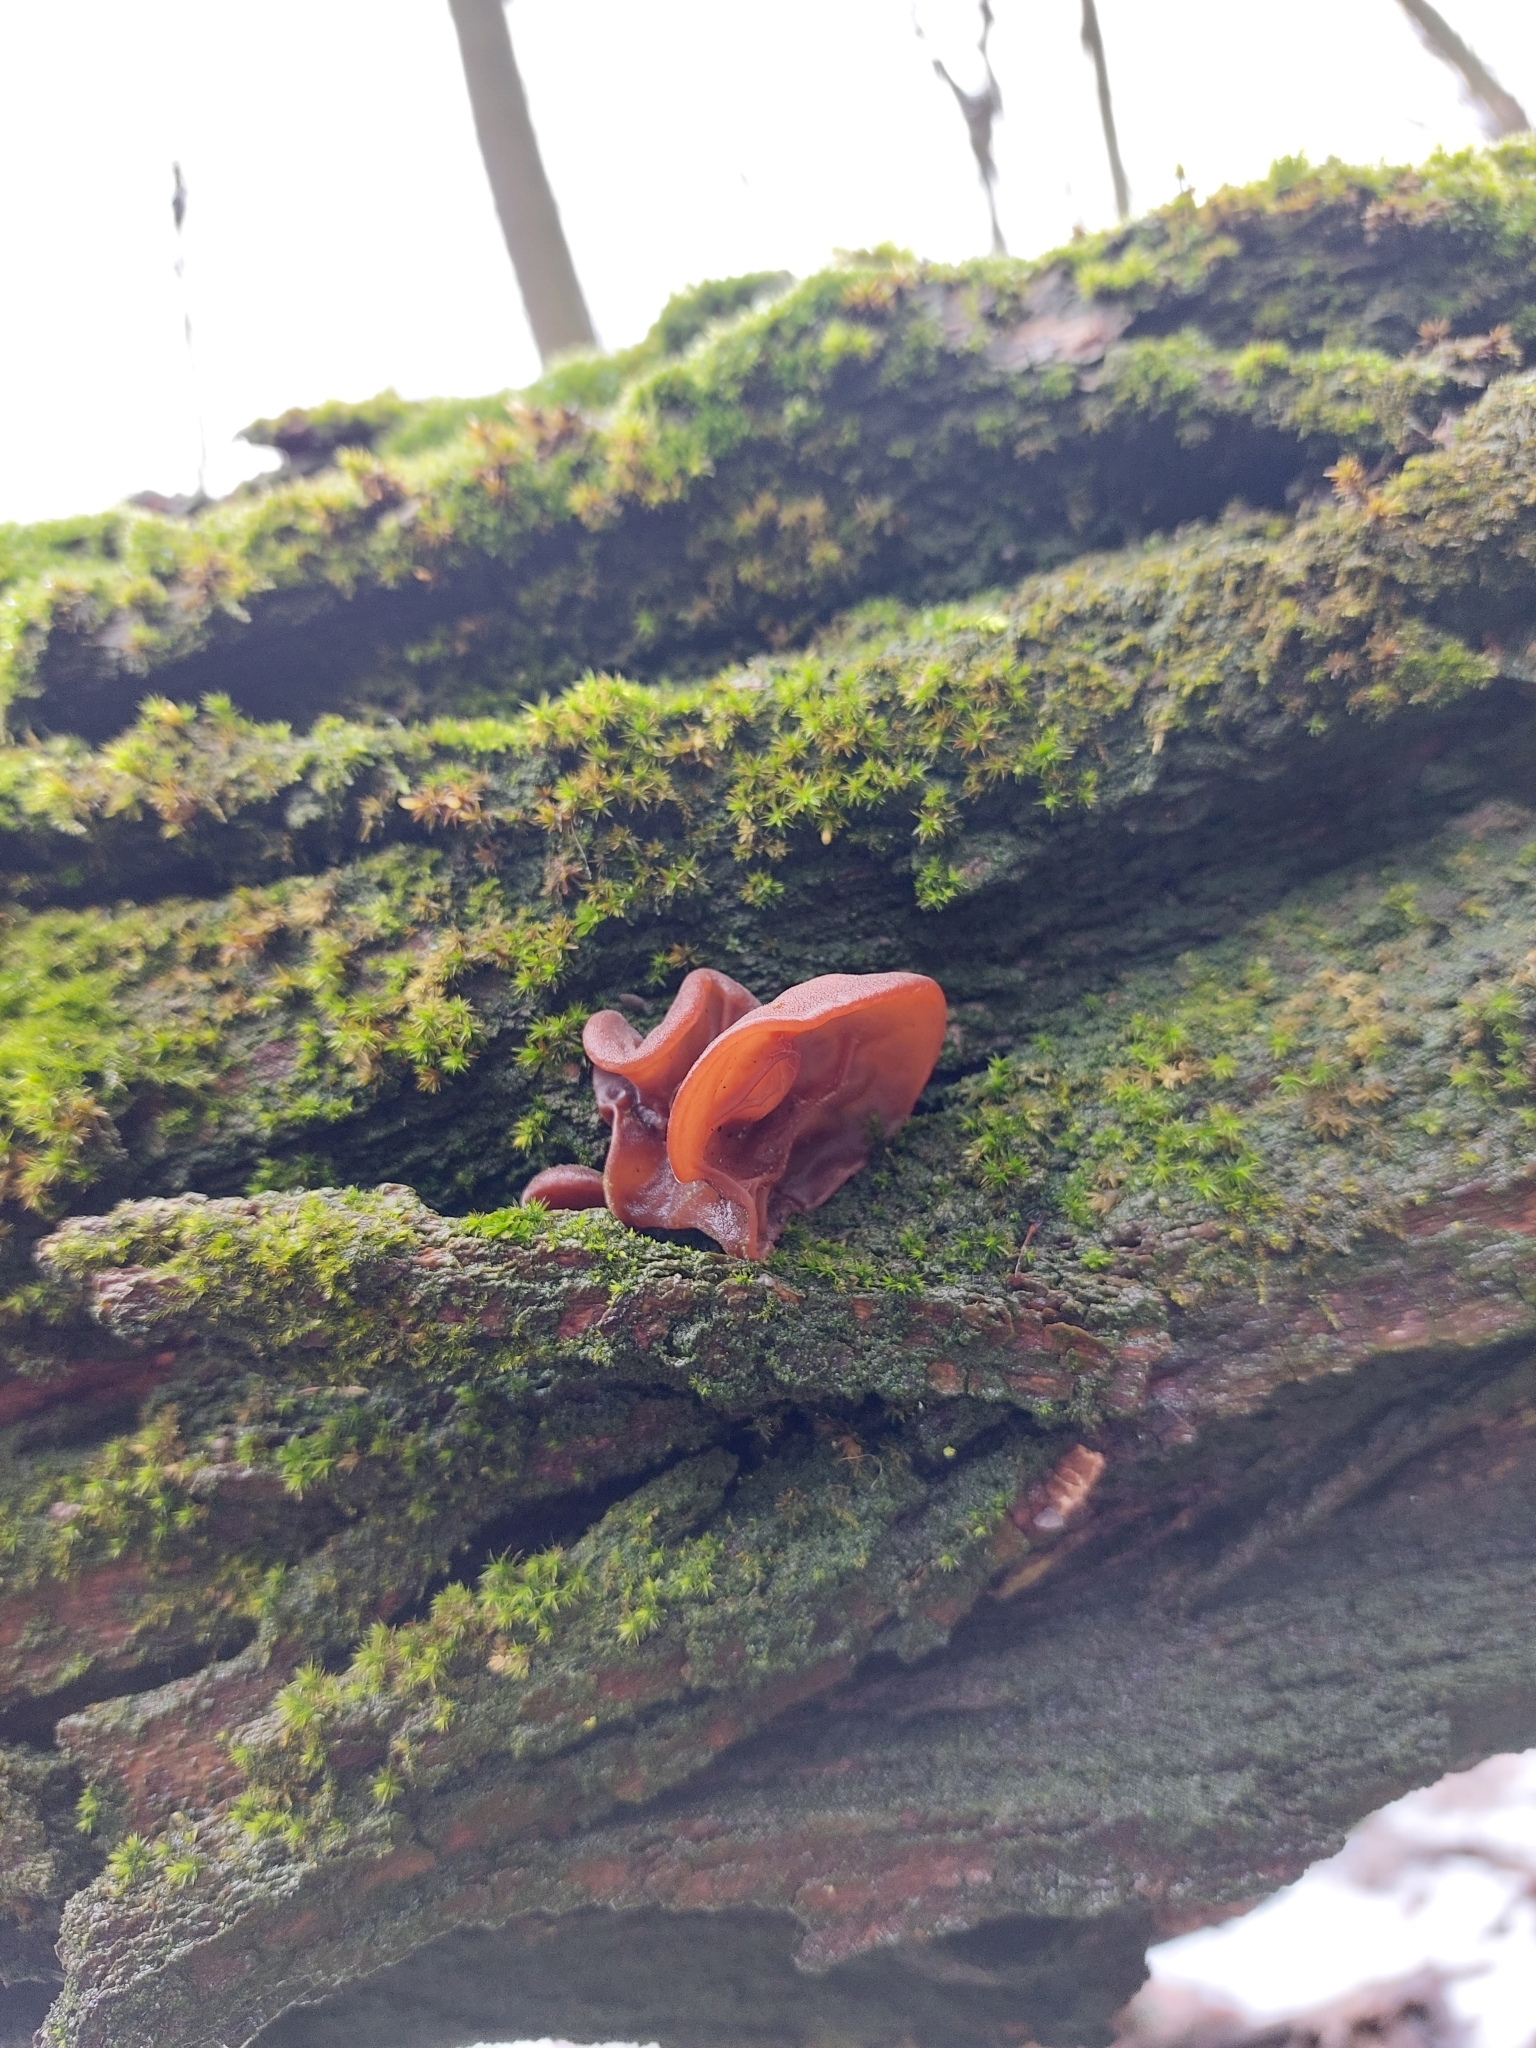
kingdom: Fungi
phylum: Basidiomycota
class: Agaricomycetes
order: Auriculariales
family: Auriculariaceae
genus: Auricularia
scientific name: Auricularia auricula-judae
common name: Jelly ear
